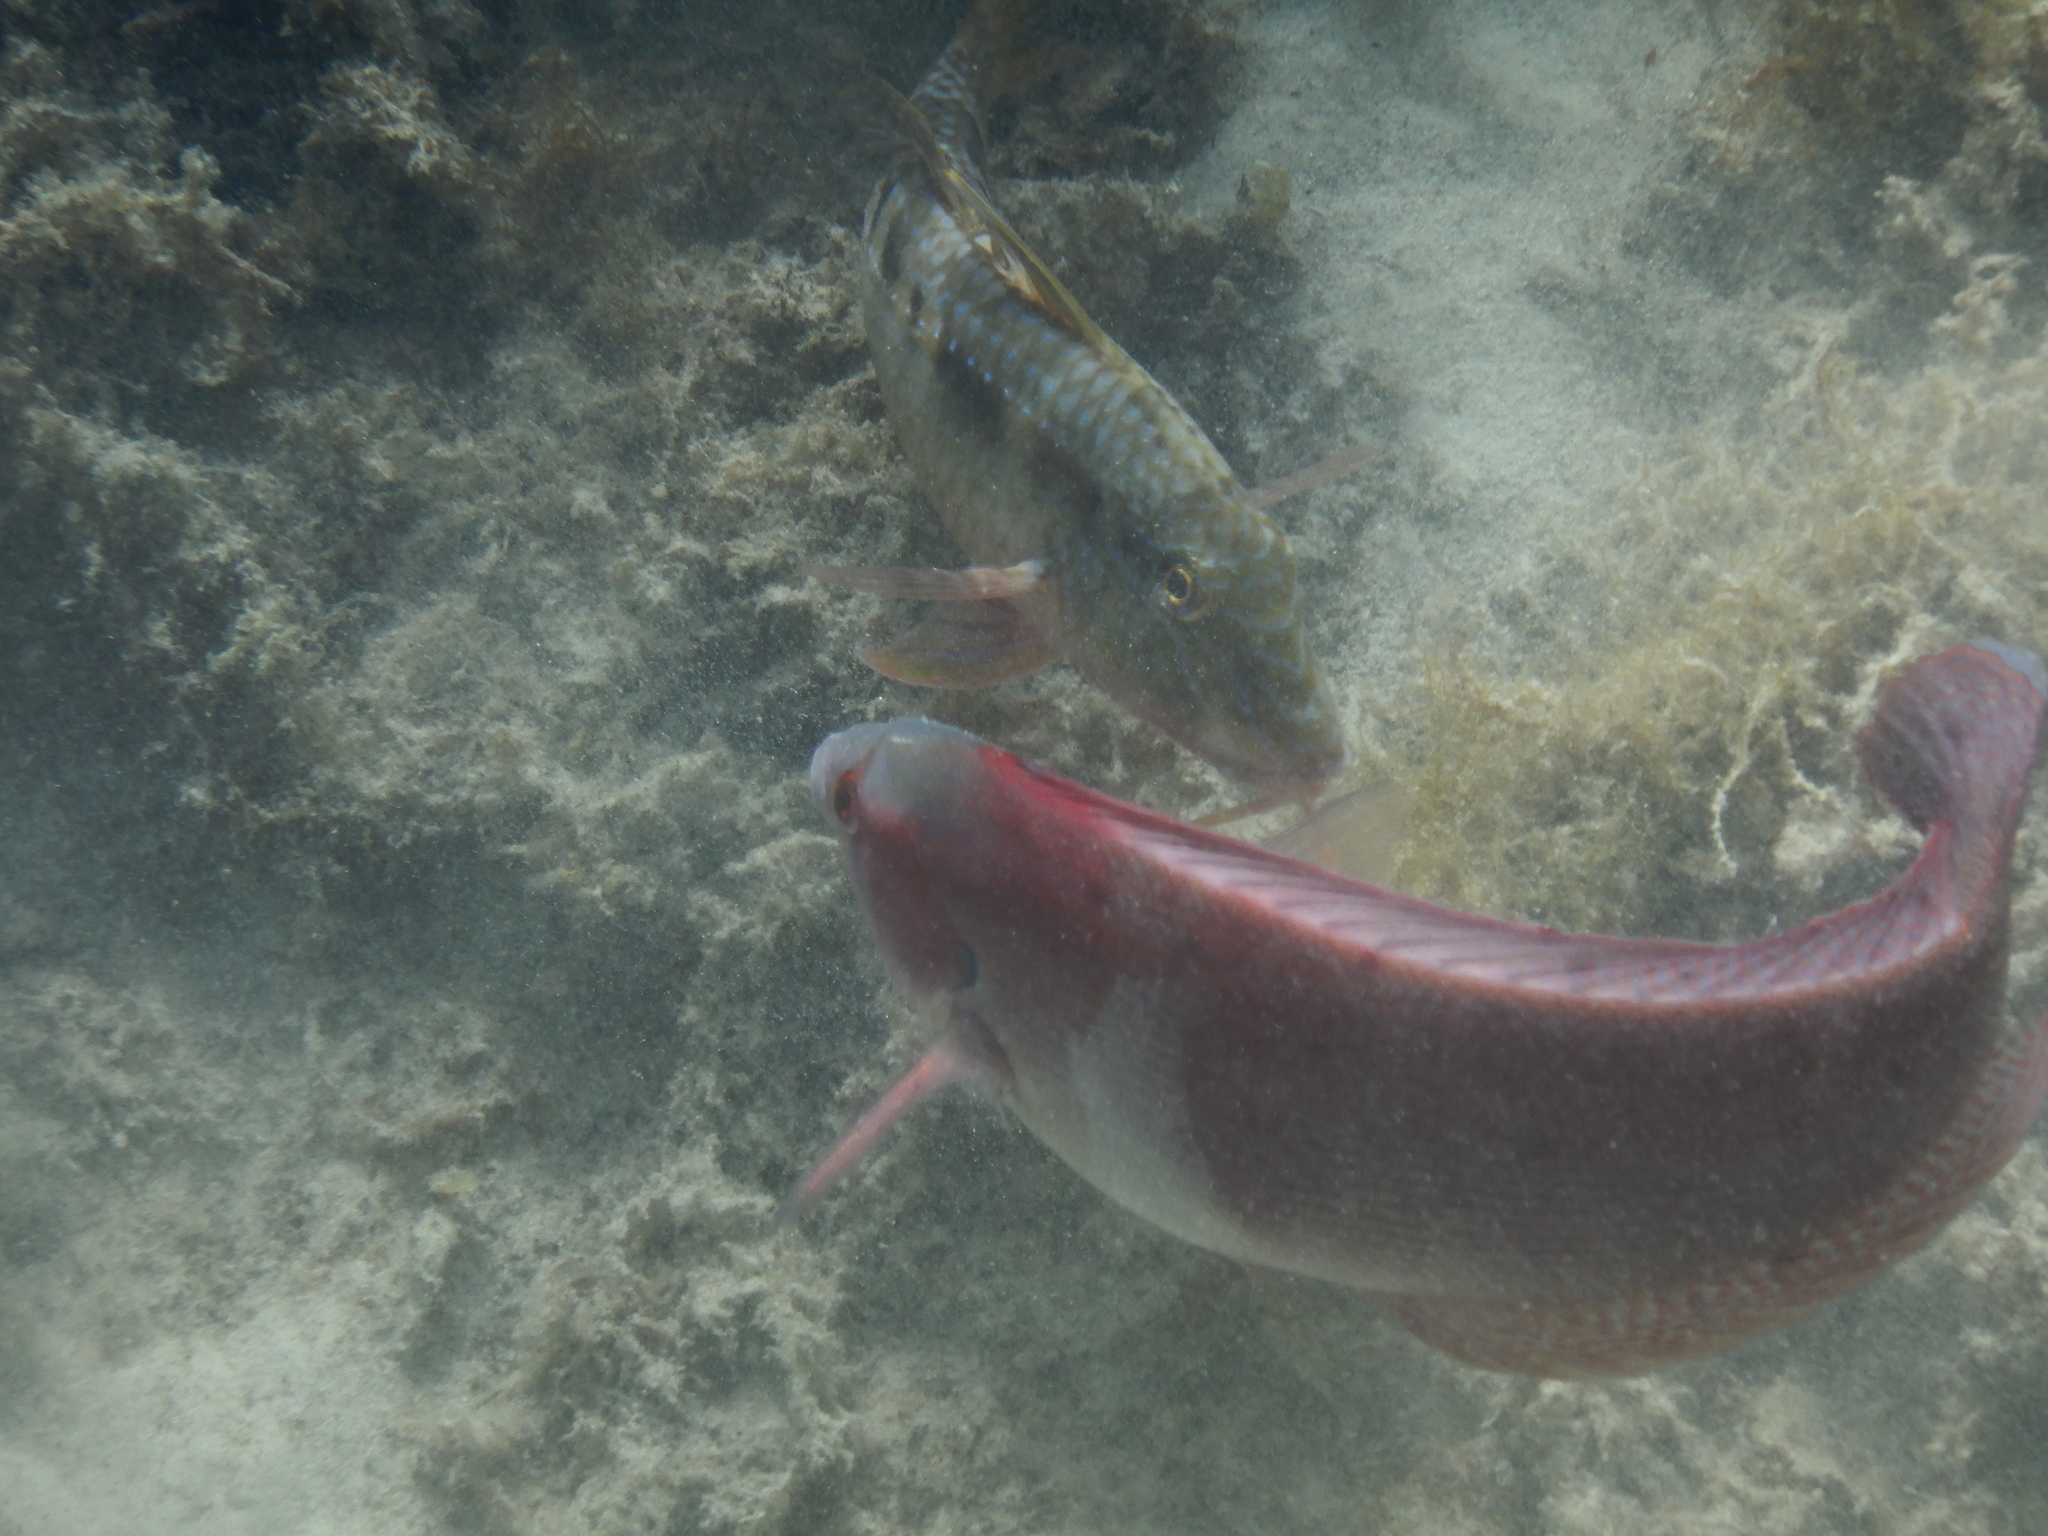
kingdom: Animalia
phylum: Chordata
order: Perciformes
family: Labridae
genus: Coris
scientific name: Coris auricularis
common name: Western king wrasse
